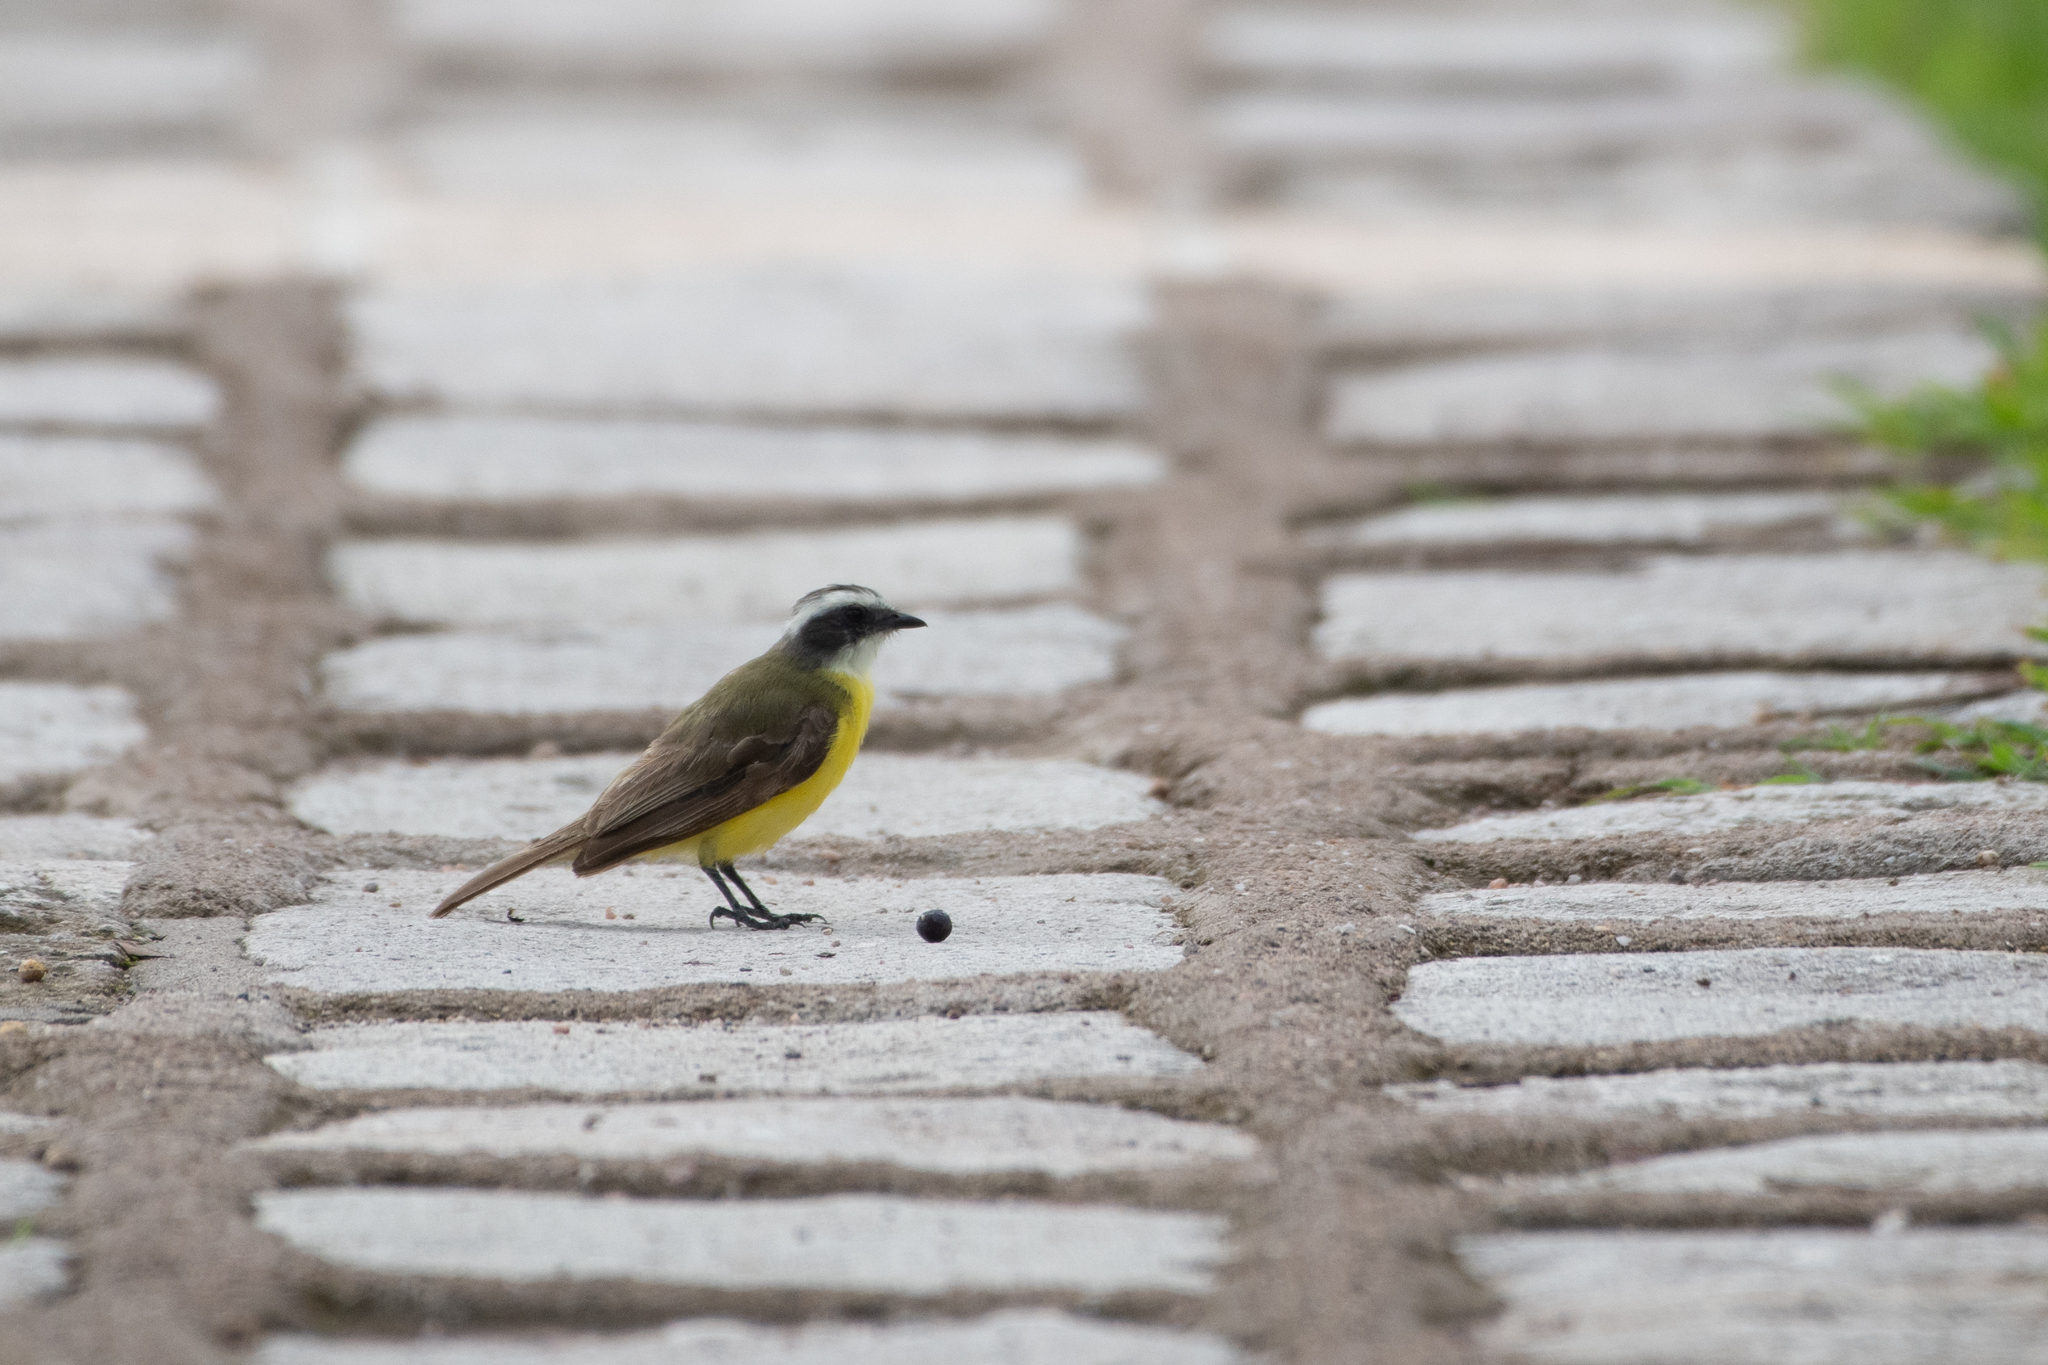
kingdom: Animalia
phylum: Chordata
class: Aves
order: Passeriformes
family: Tyrannidae
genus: Myiozetetes
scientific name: Myiozetetes similis
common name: Social flycatcher
